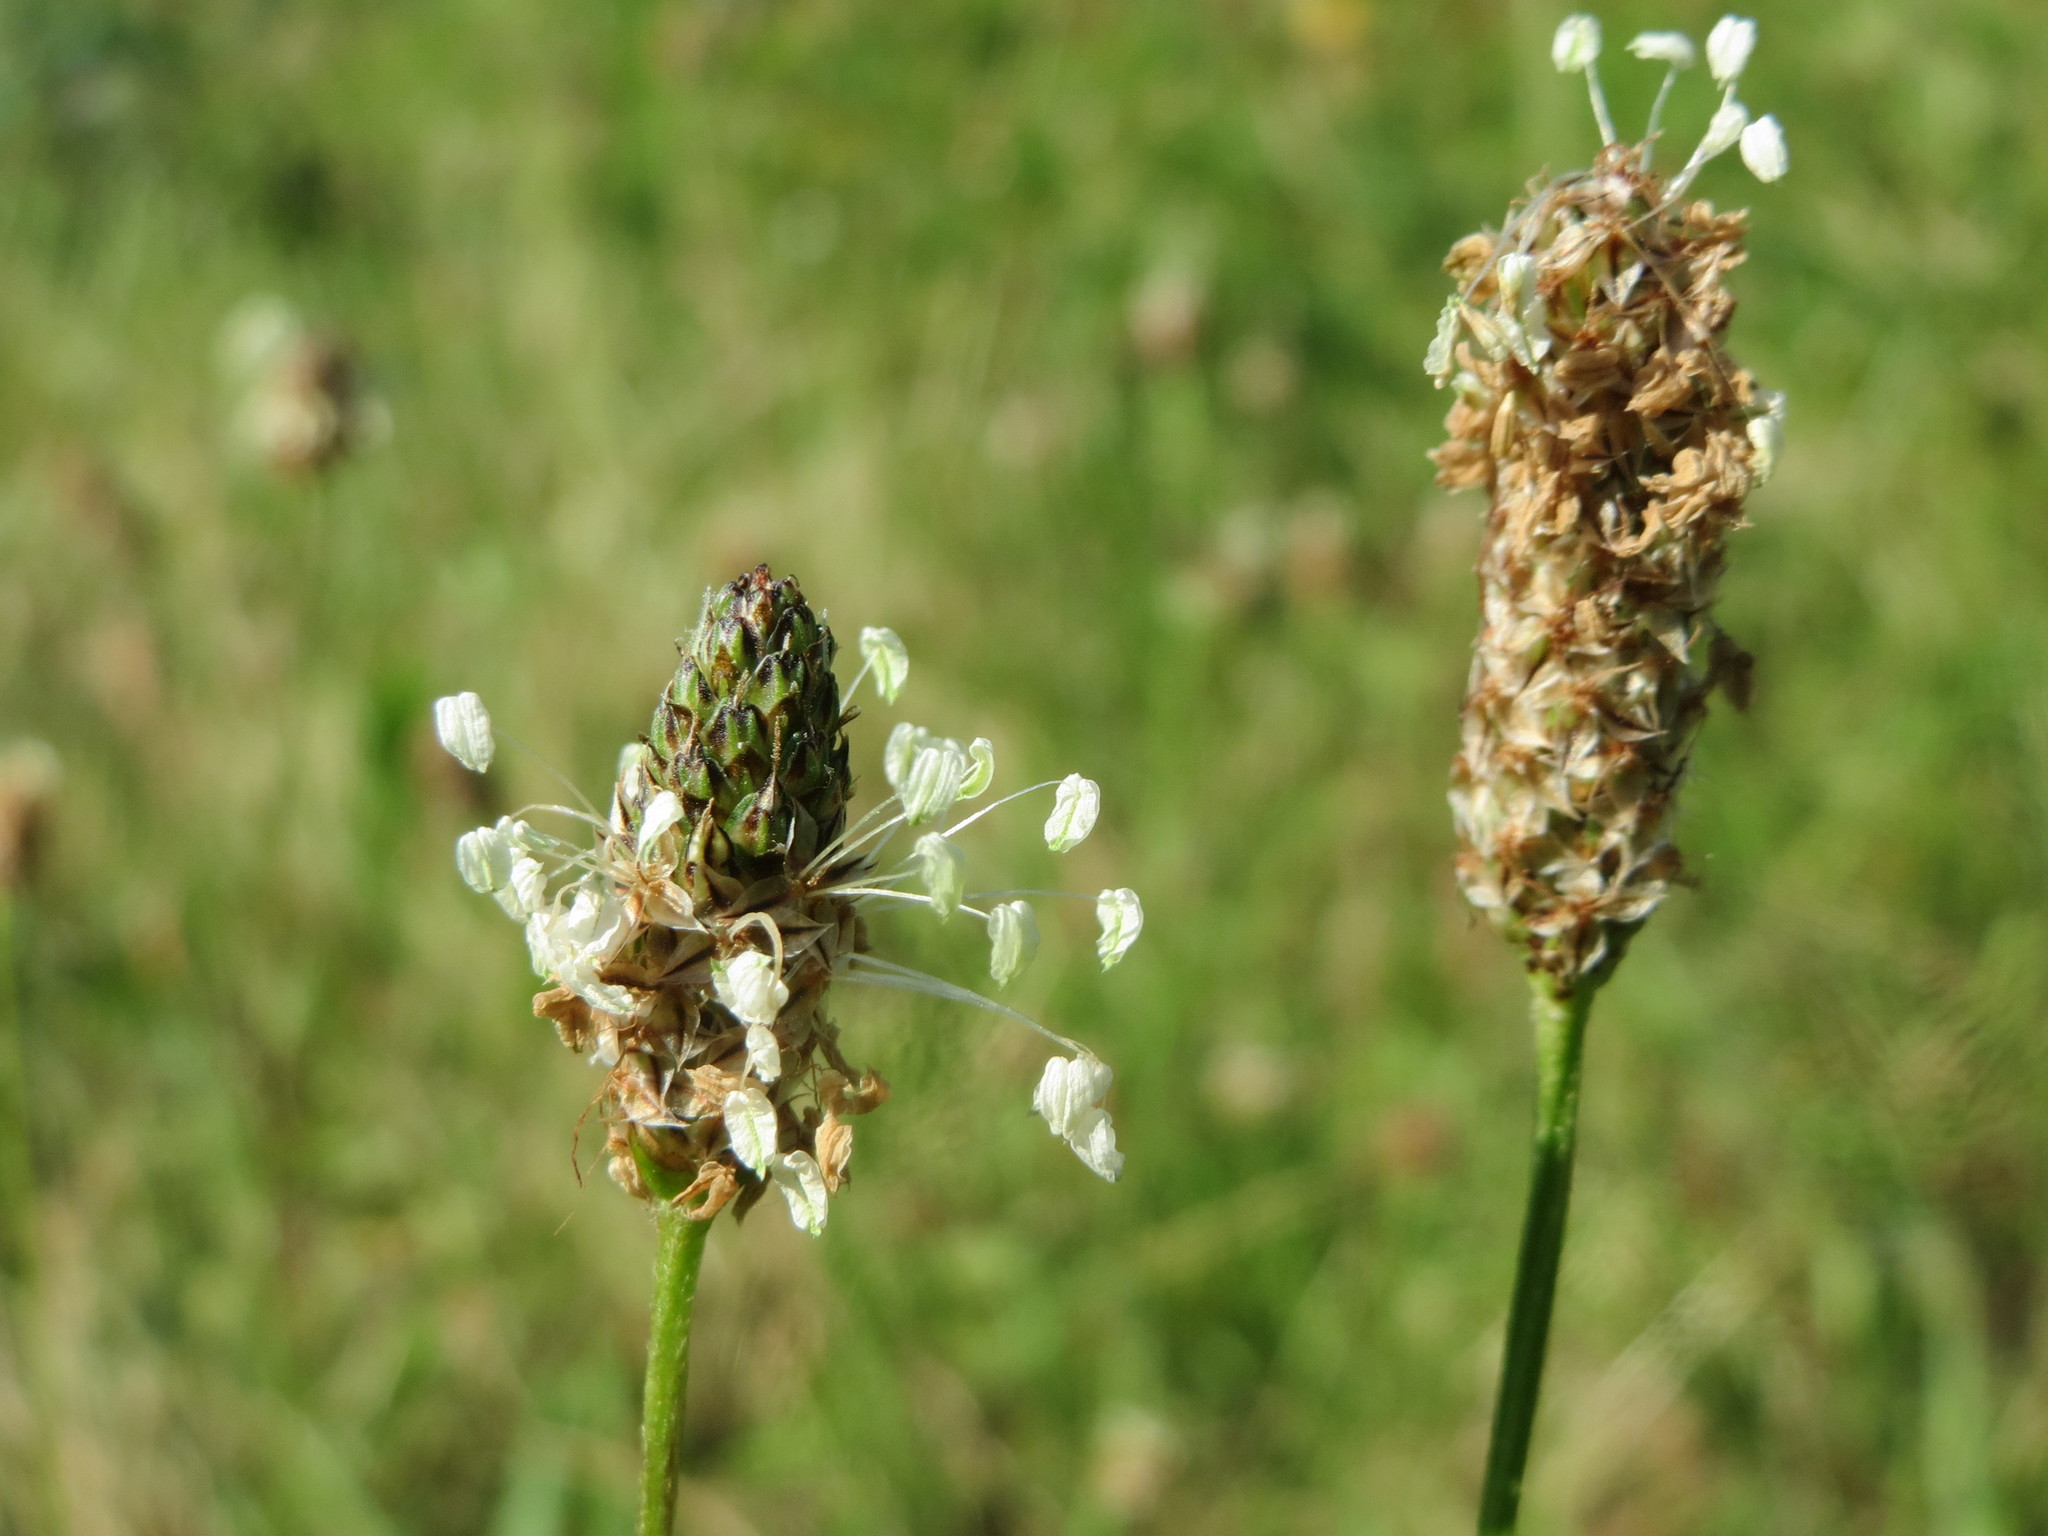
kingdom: Plantae
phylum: Tracheophyta
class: Magnoliopsida
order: Lamiales
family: Plantaginaceae
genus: Plantago
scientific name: Plantago lanceolata
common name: Ribwort plantain
